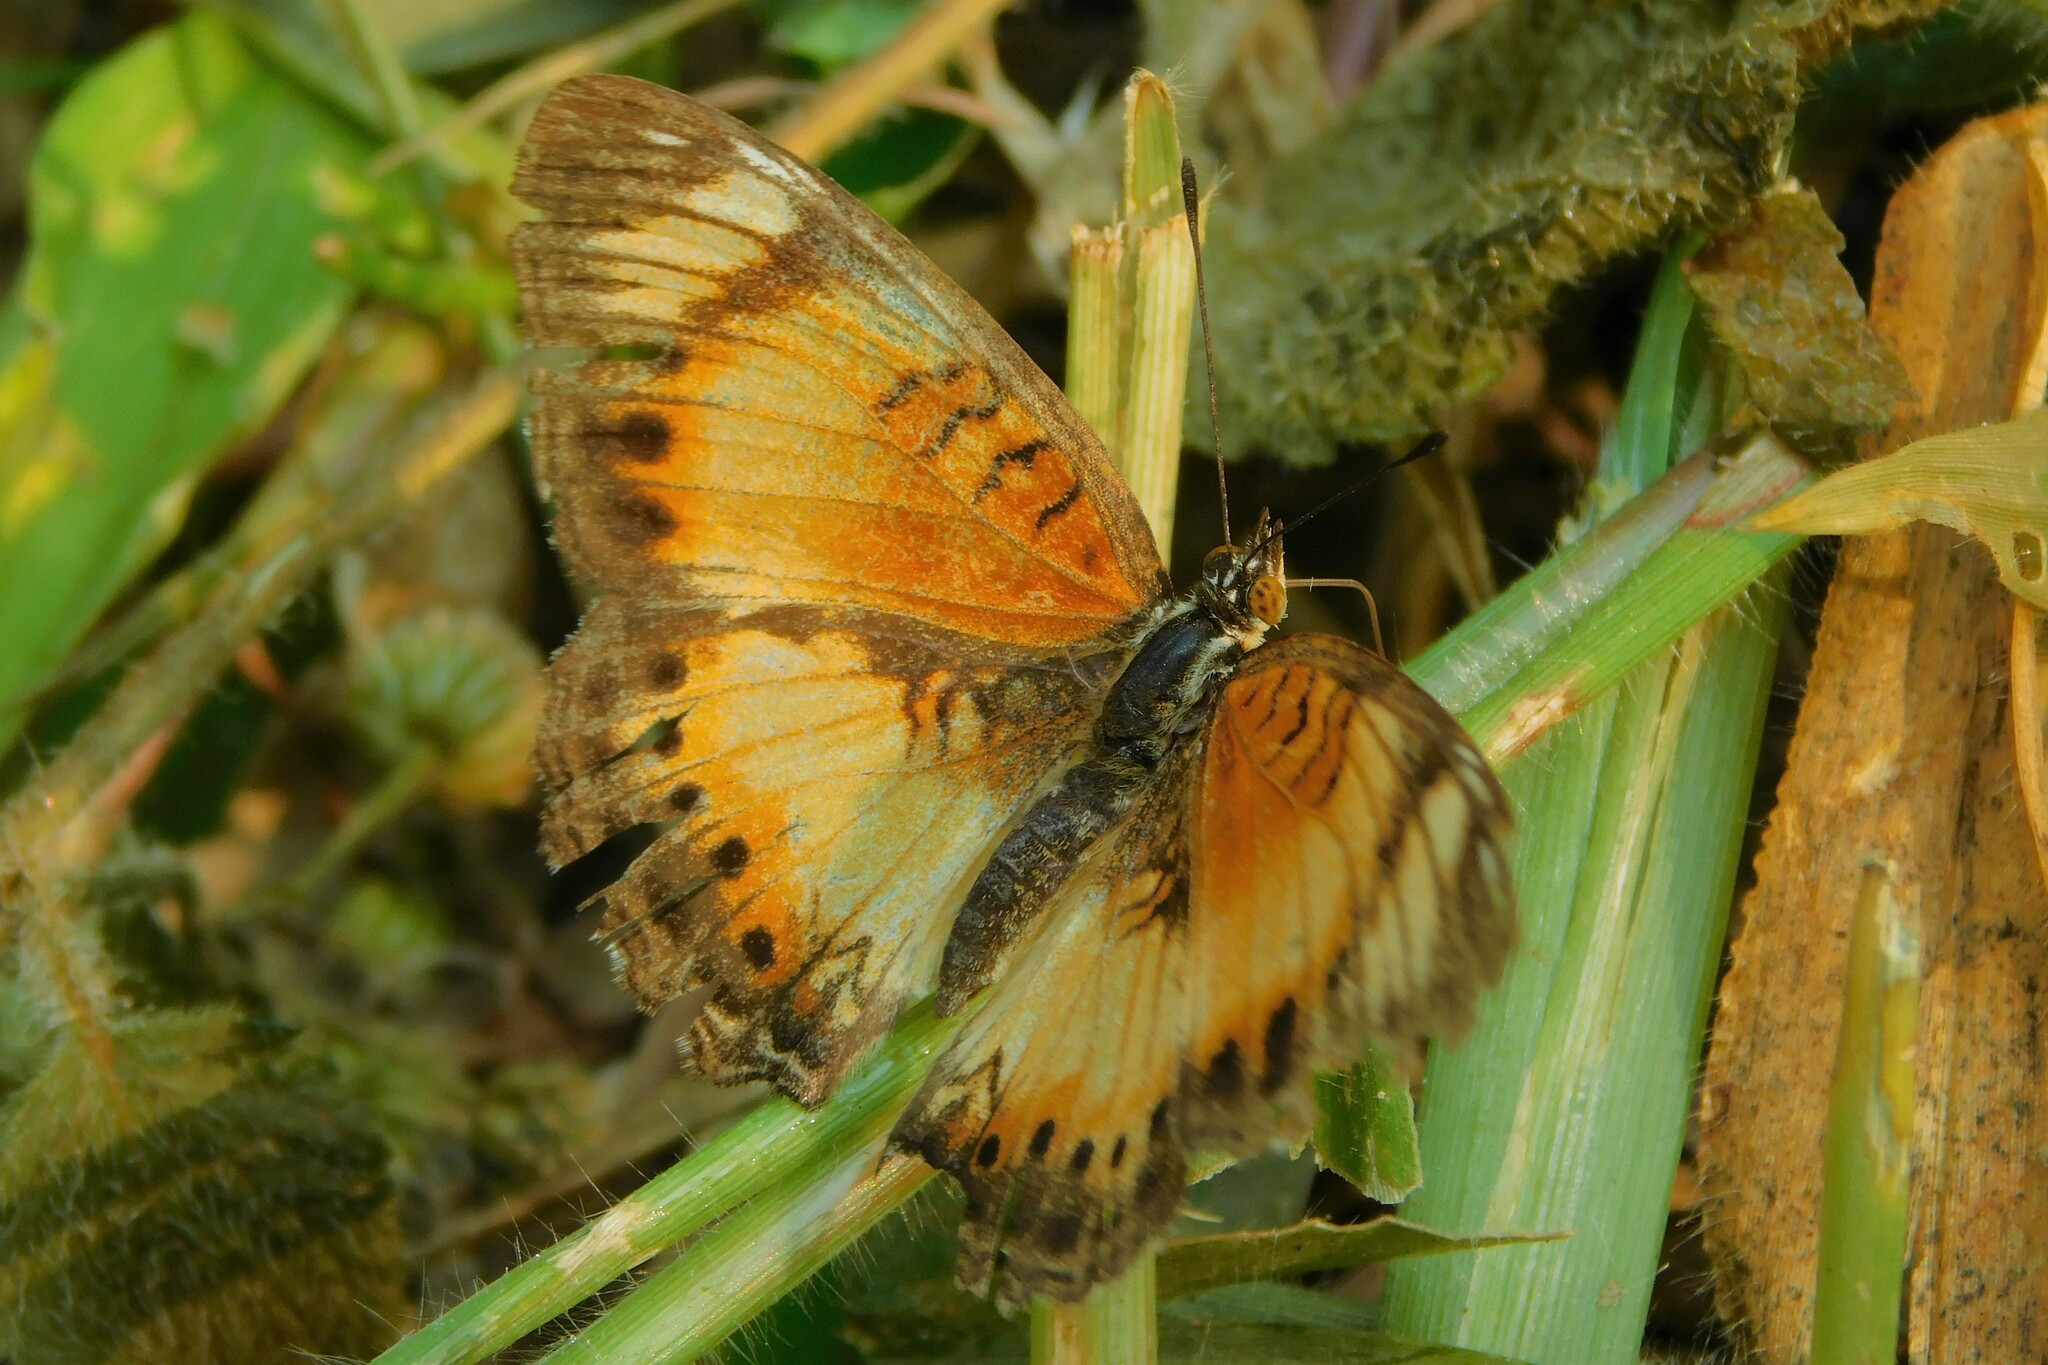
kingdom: Animalia
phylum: Arthropoda
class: Insecta
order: Lepidoptera
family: Nymphalidae
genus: Junonia
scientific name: Junonia sophia
